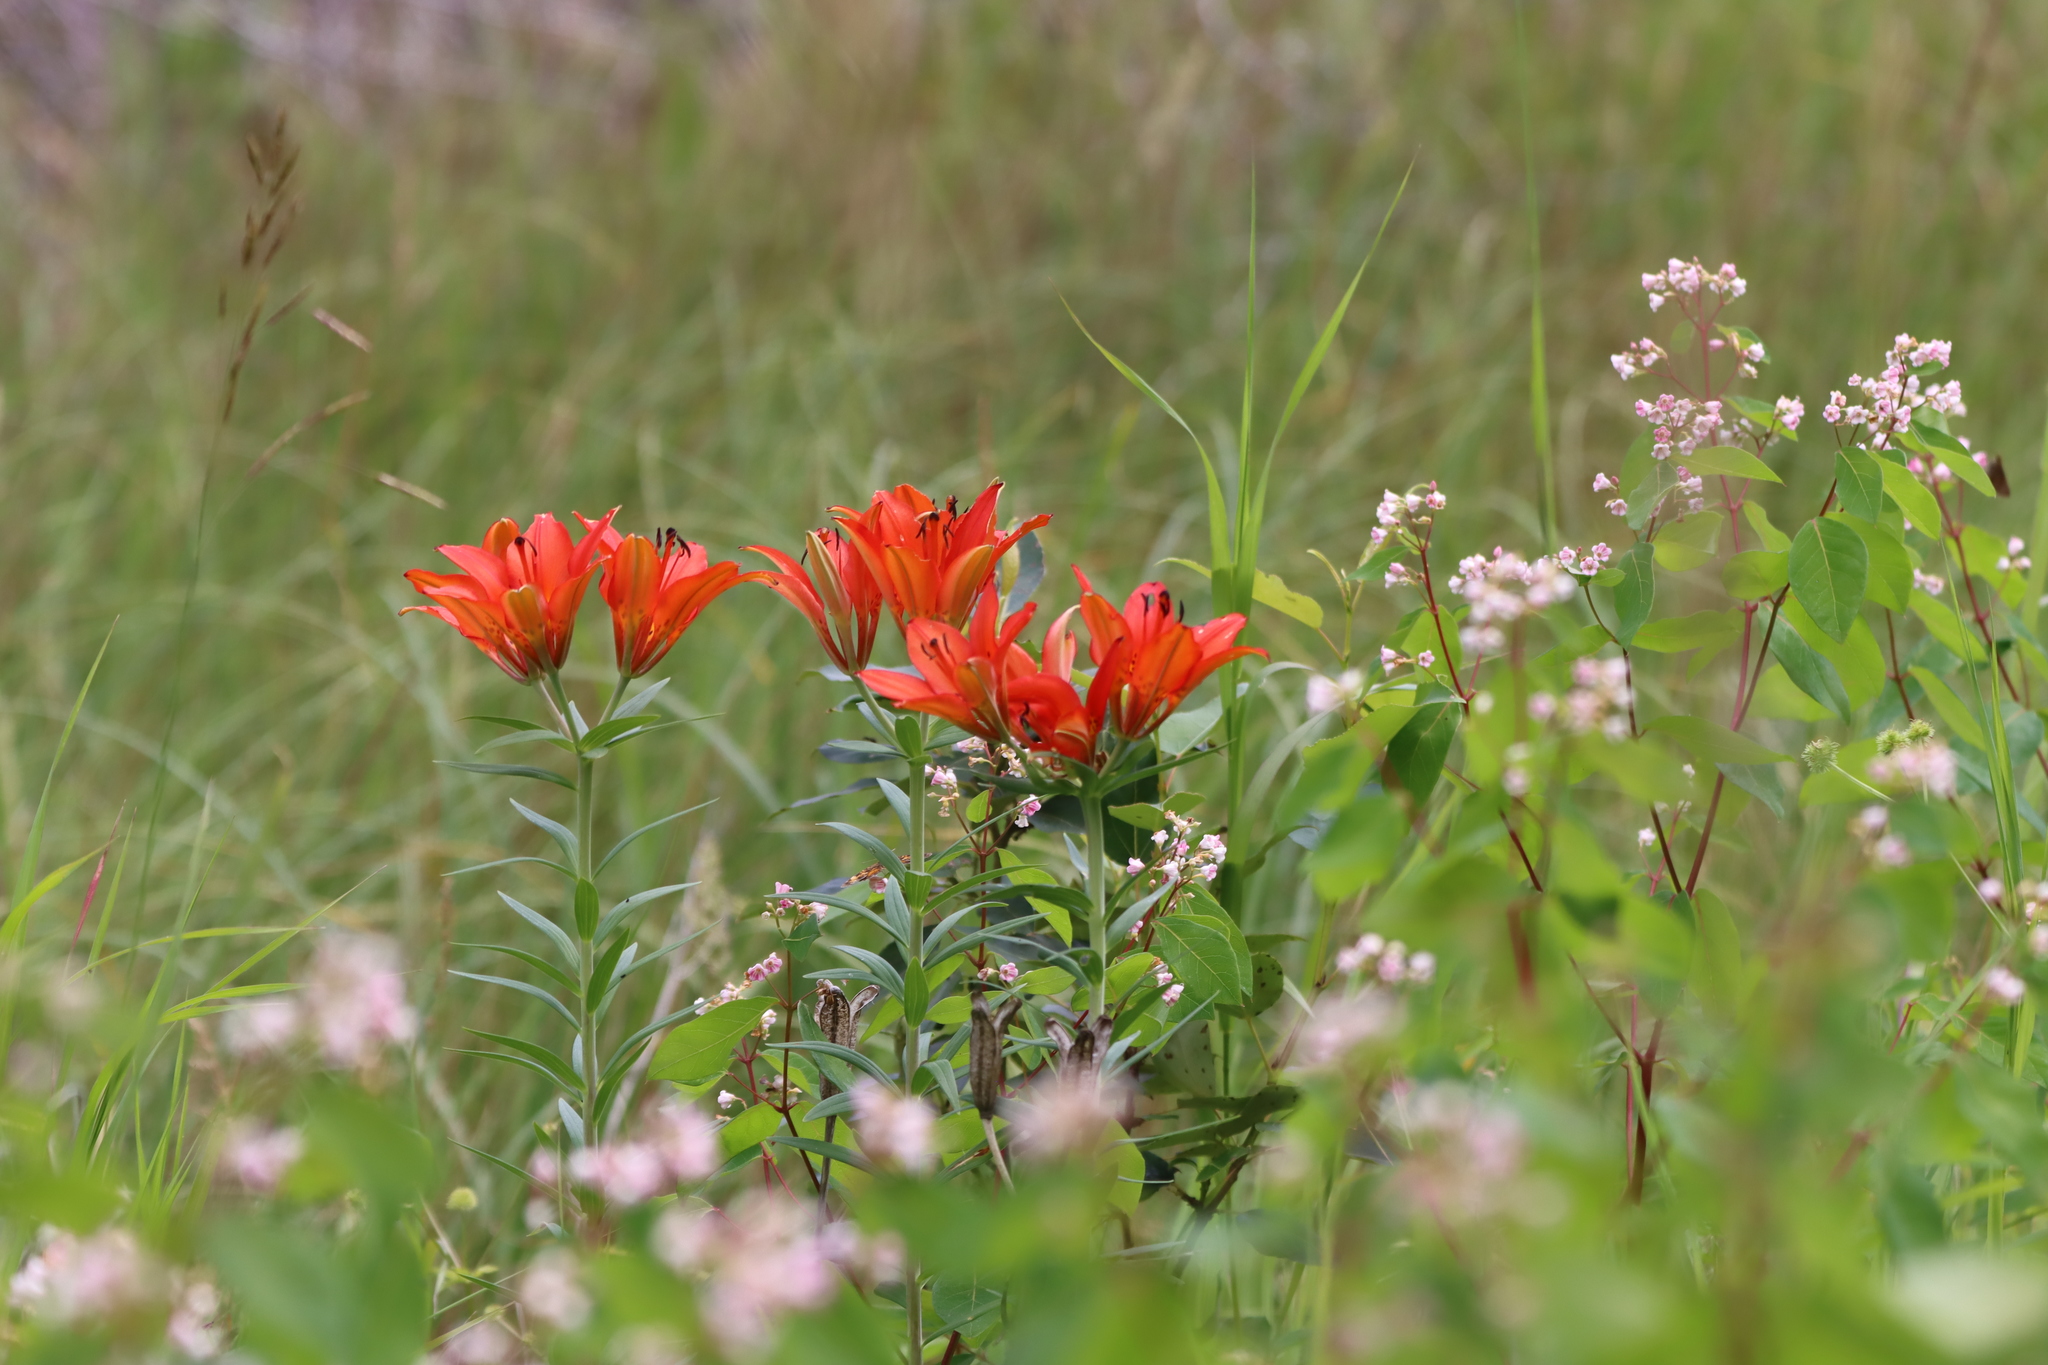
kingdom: Plantae
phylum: Tracheophyta
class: Liliopsida
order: Liliales
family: Liliaceae
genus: Lilium
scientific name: Lilium philadelphicum
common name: Red lily
